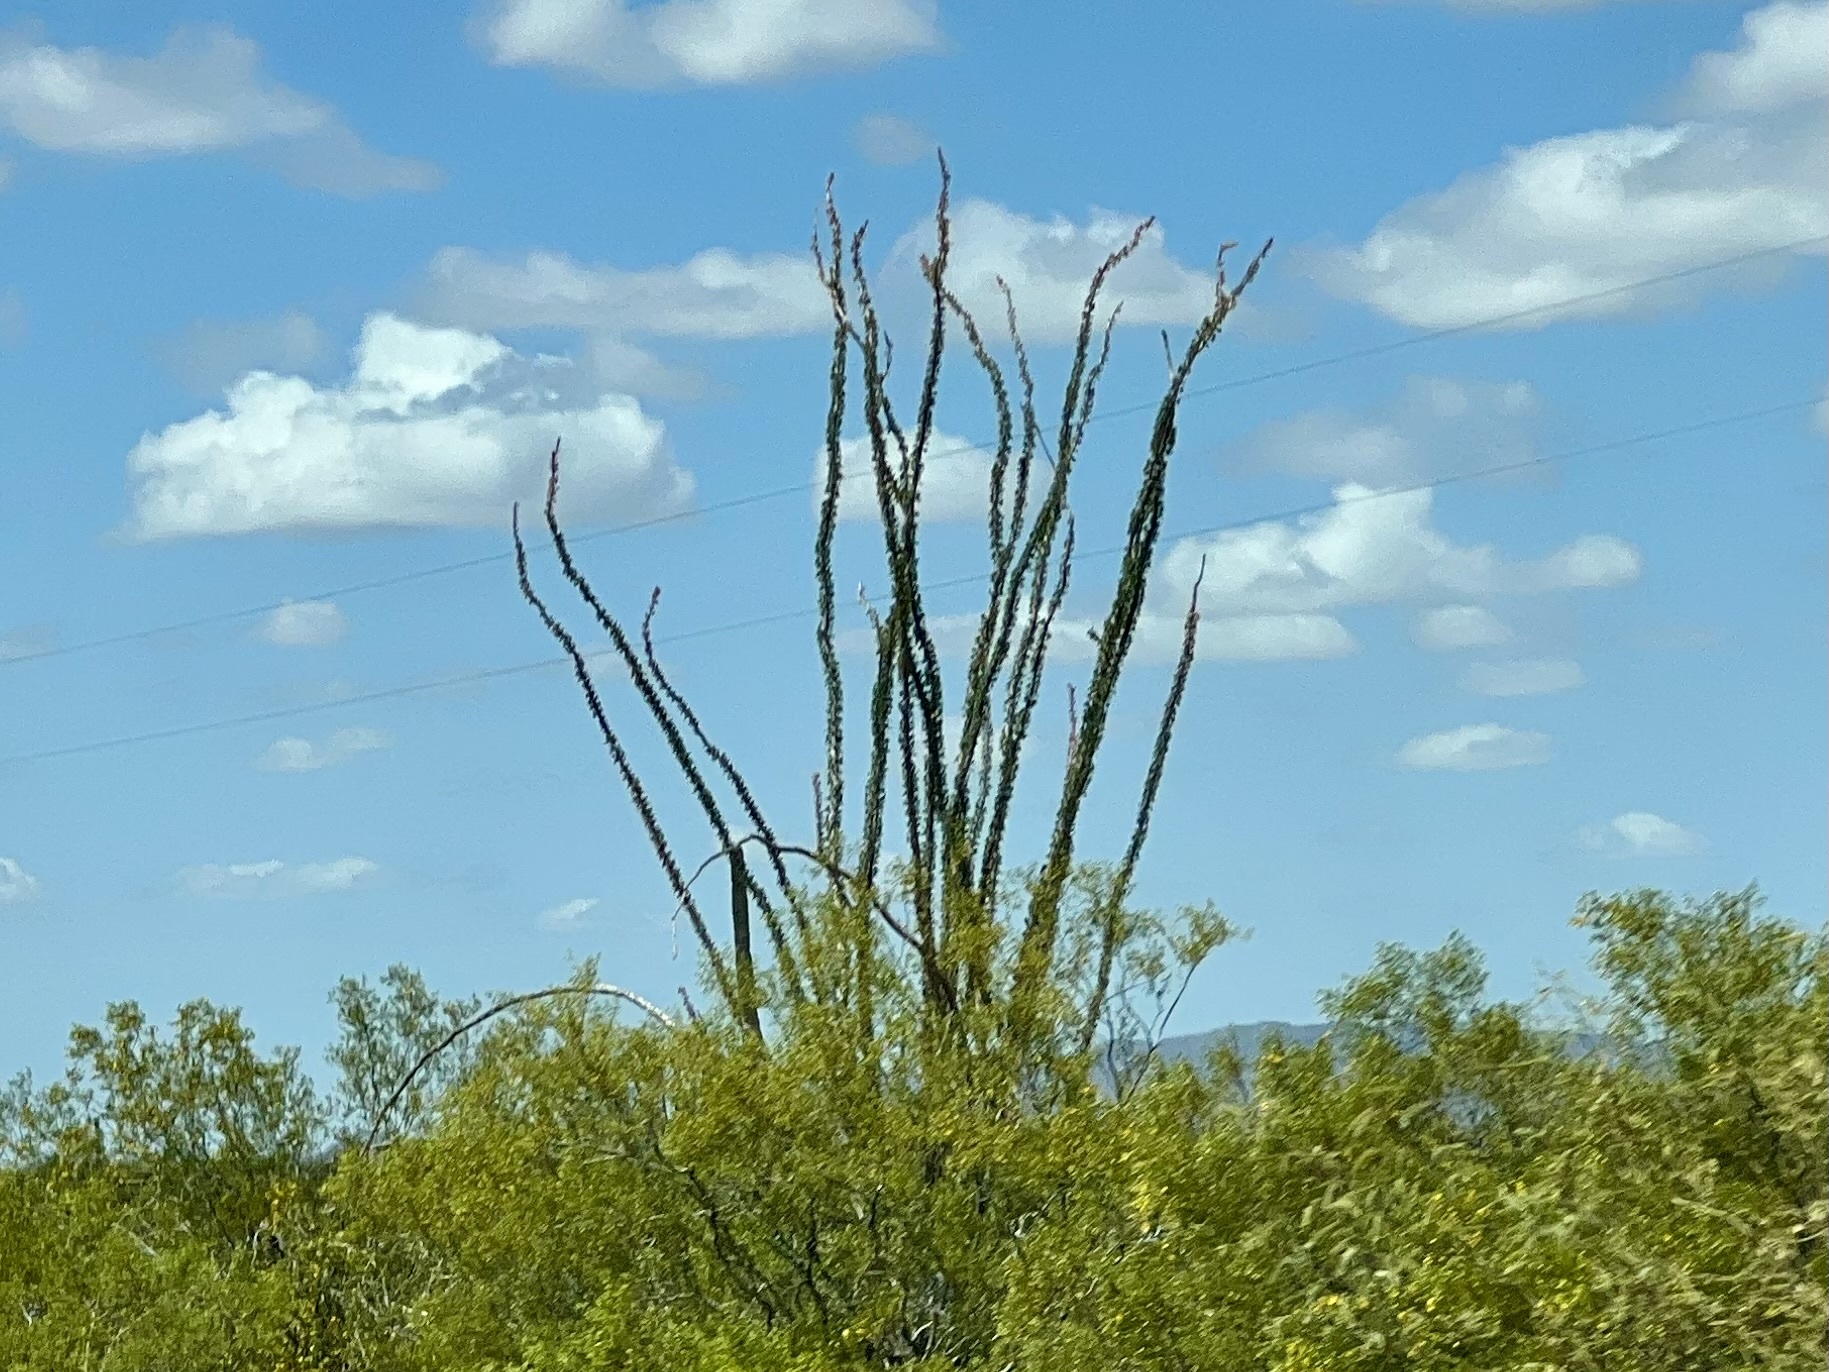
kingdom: Plantae
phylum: Tracheophyta
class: Magnoliopsida
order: Ericales
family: Fouquieriaceae
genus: Fouquieria
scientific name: Fouquieria splendens
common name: Vine-cactus
